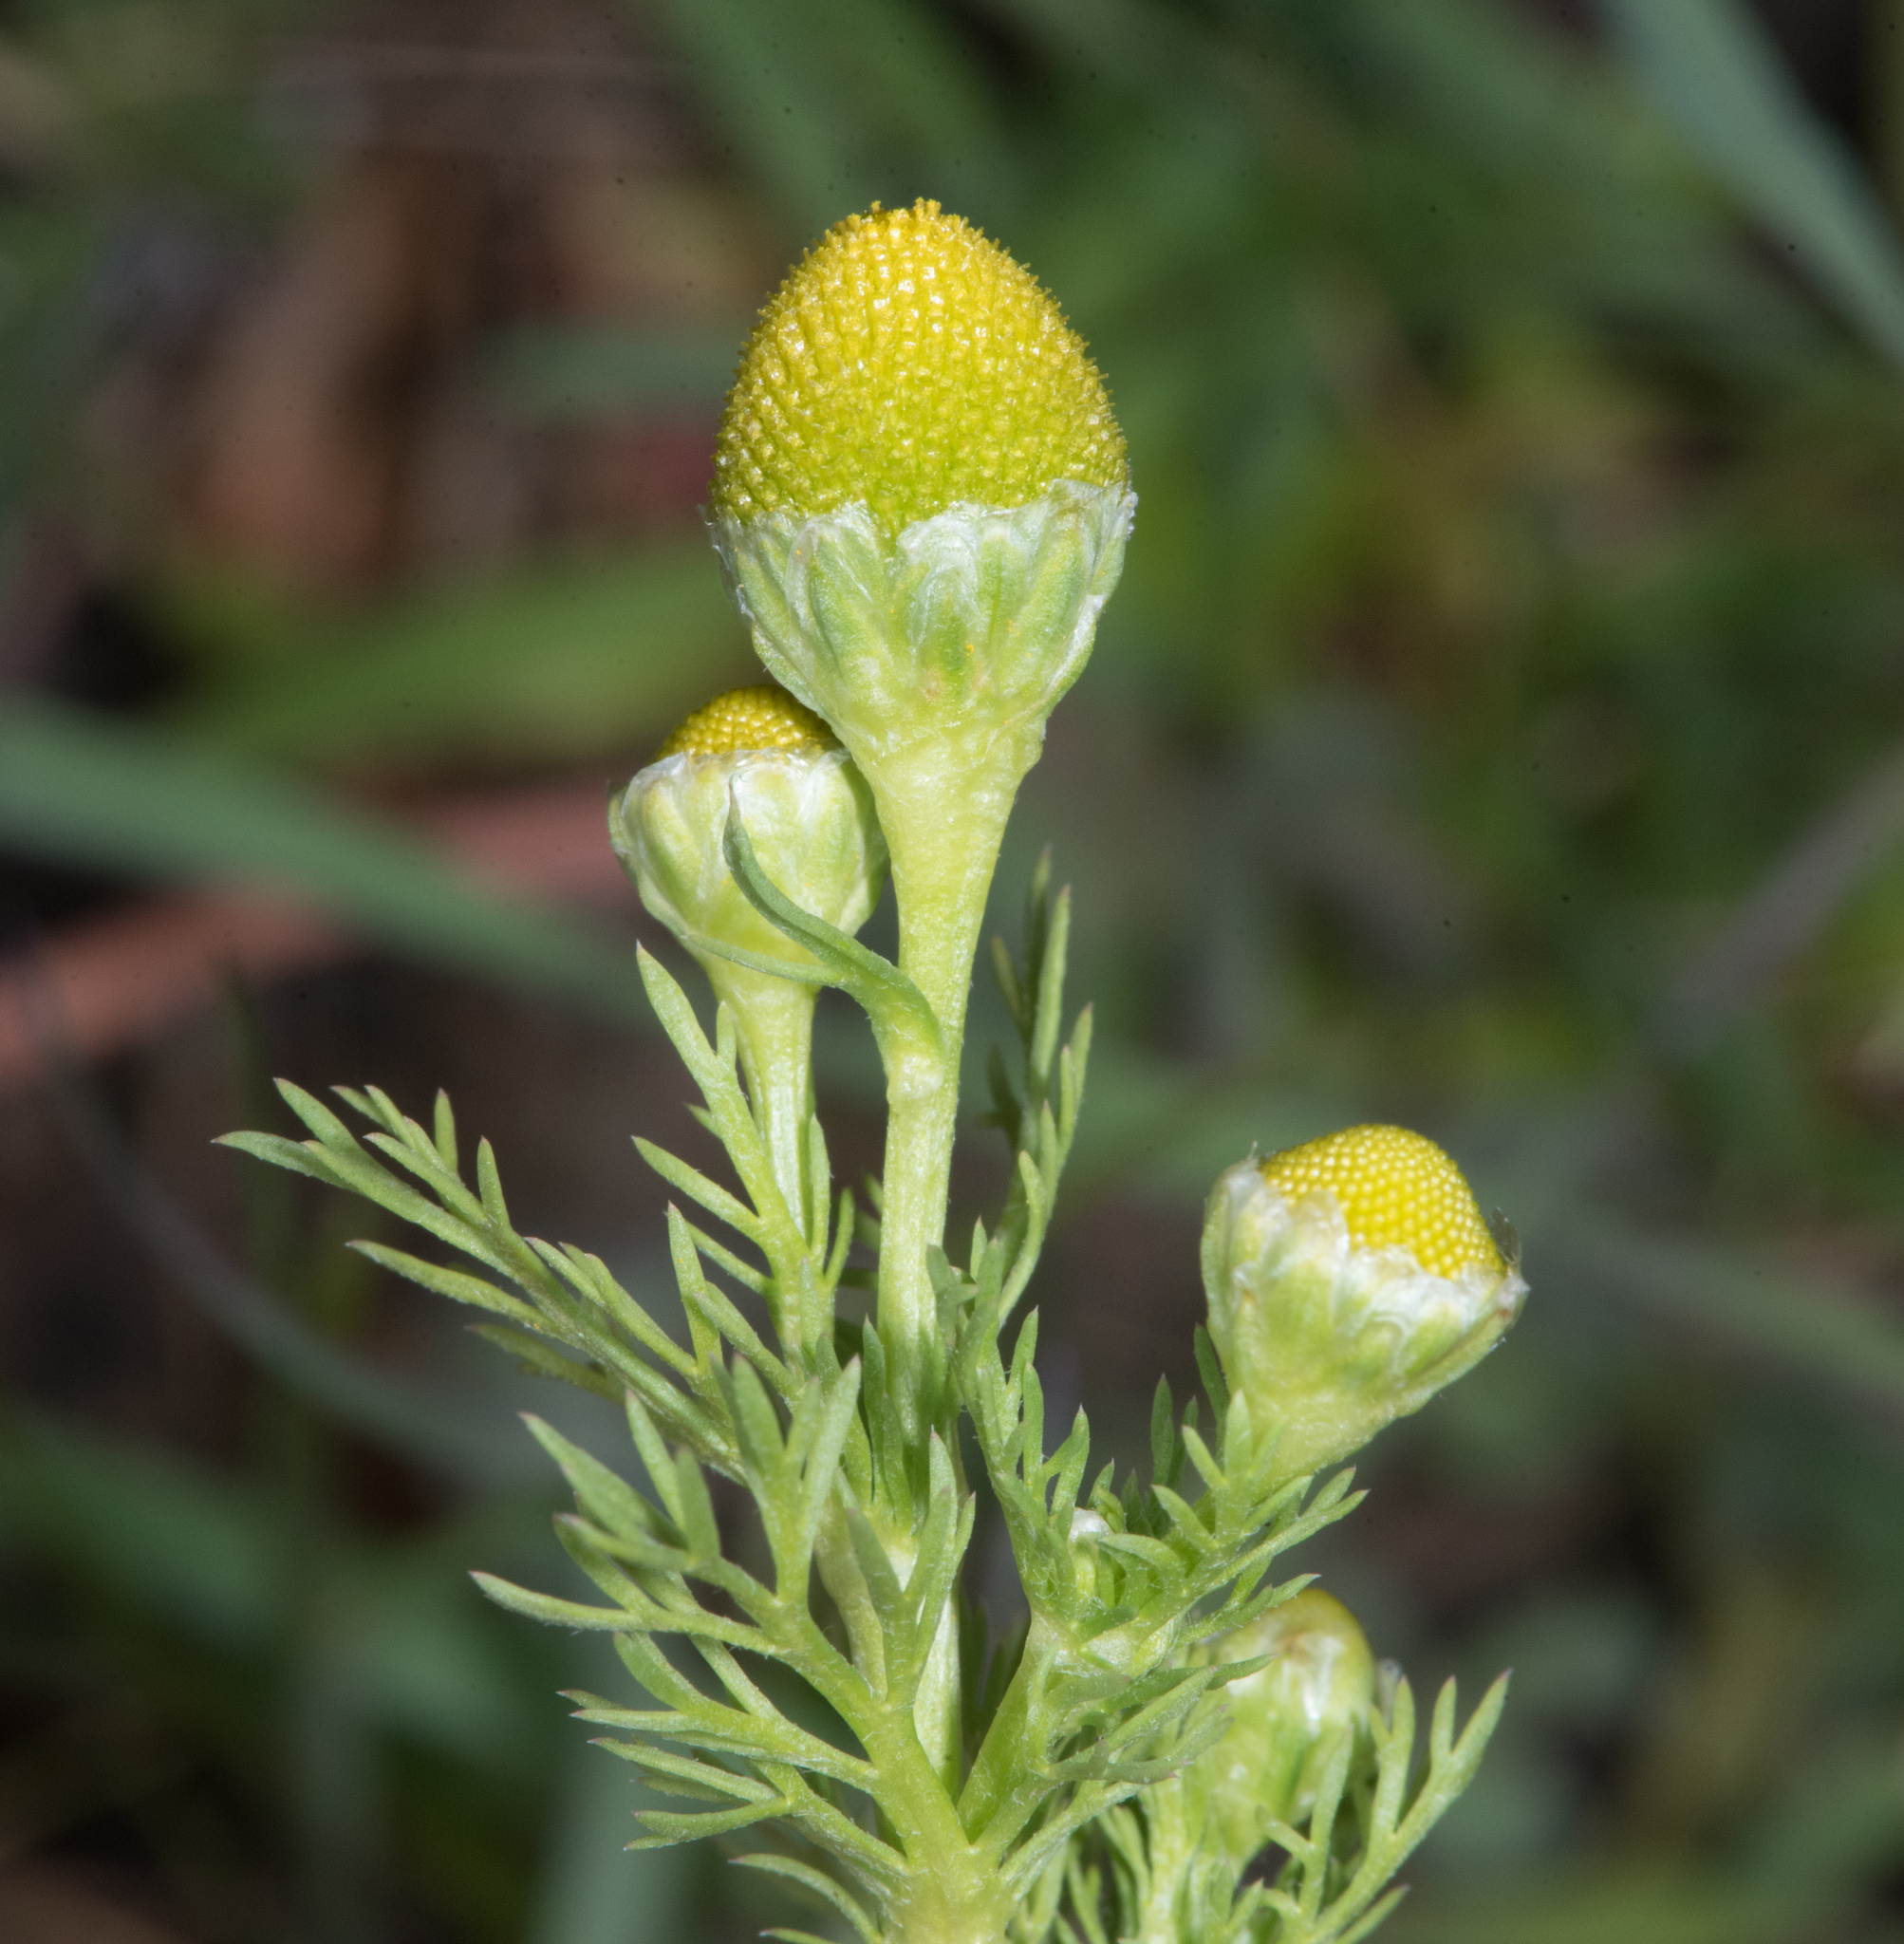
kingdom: Plantae
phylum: Tracheophyta
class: Magnoliopsida
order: Asterales
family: Asteraceae
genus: Matricaria
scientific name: Matricaria discoidea
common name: Disc mayweed
